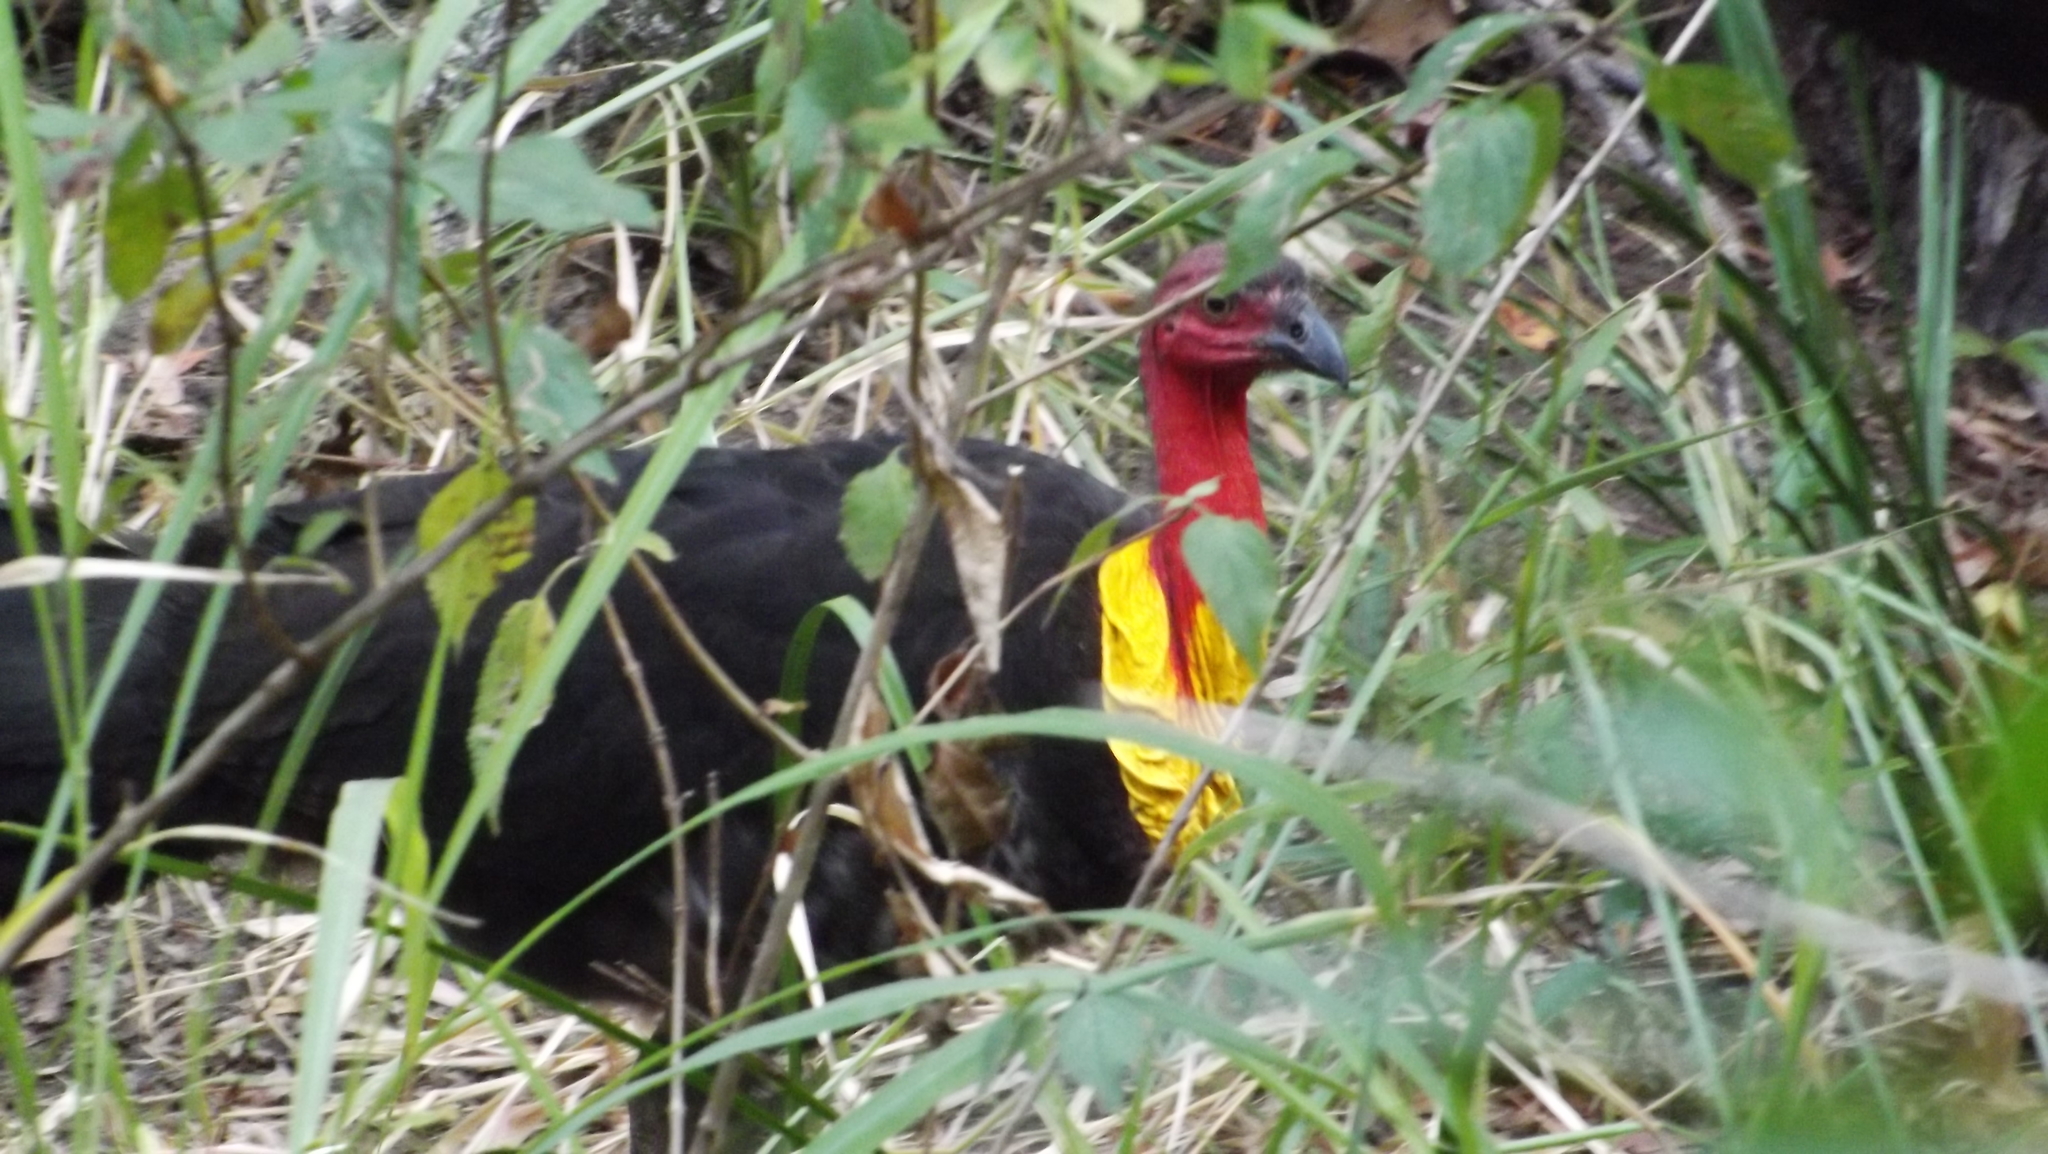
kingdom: Animalia
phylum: Chordata
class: Aves
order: Galliformes
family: Megapodiidae
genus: Alectura
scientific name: Alectura lathami
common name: Australian brushturkey
